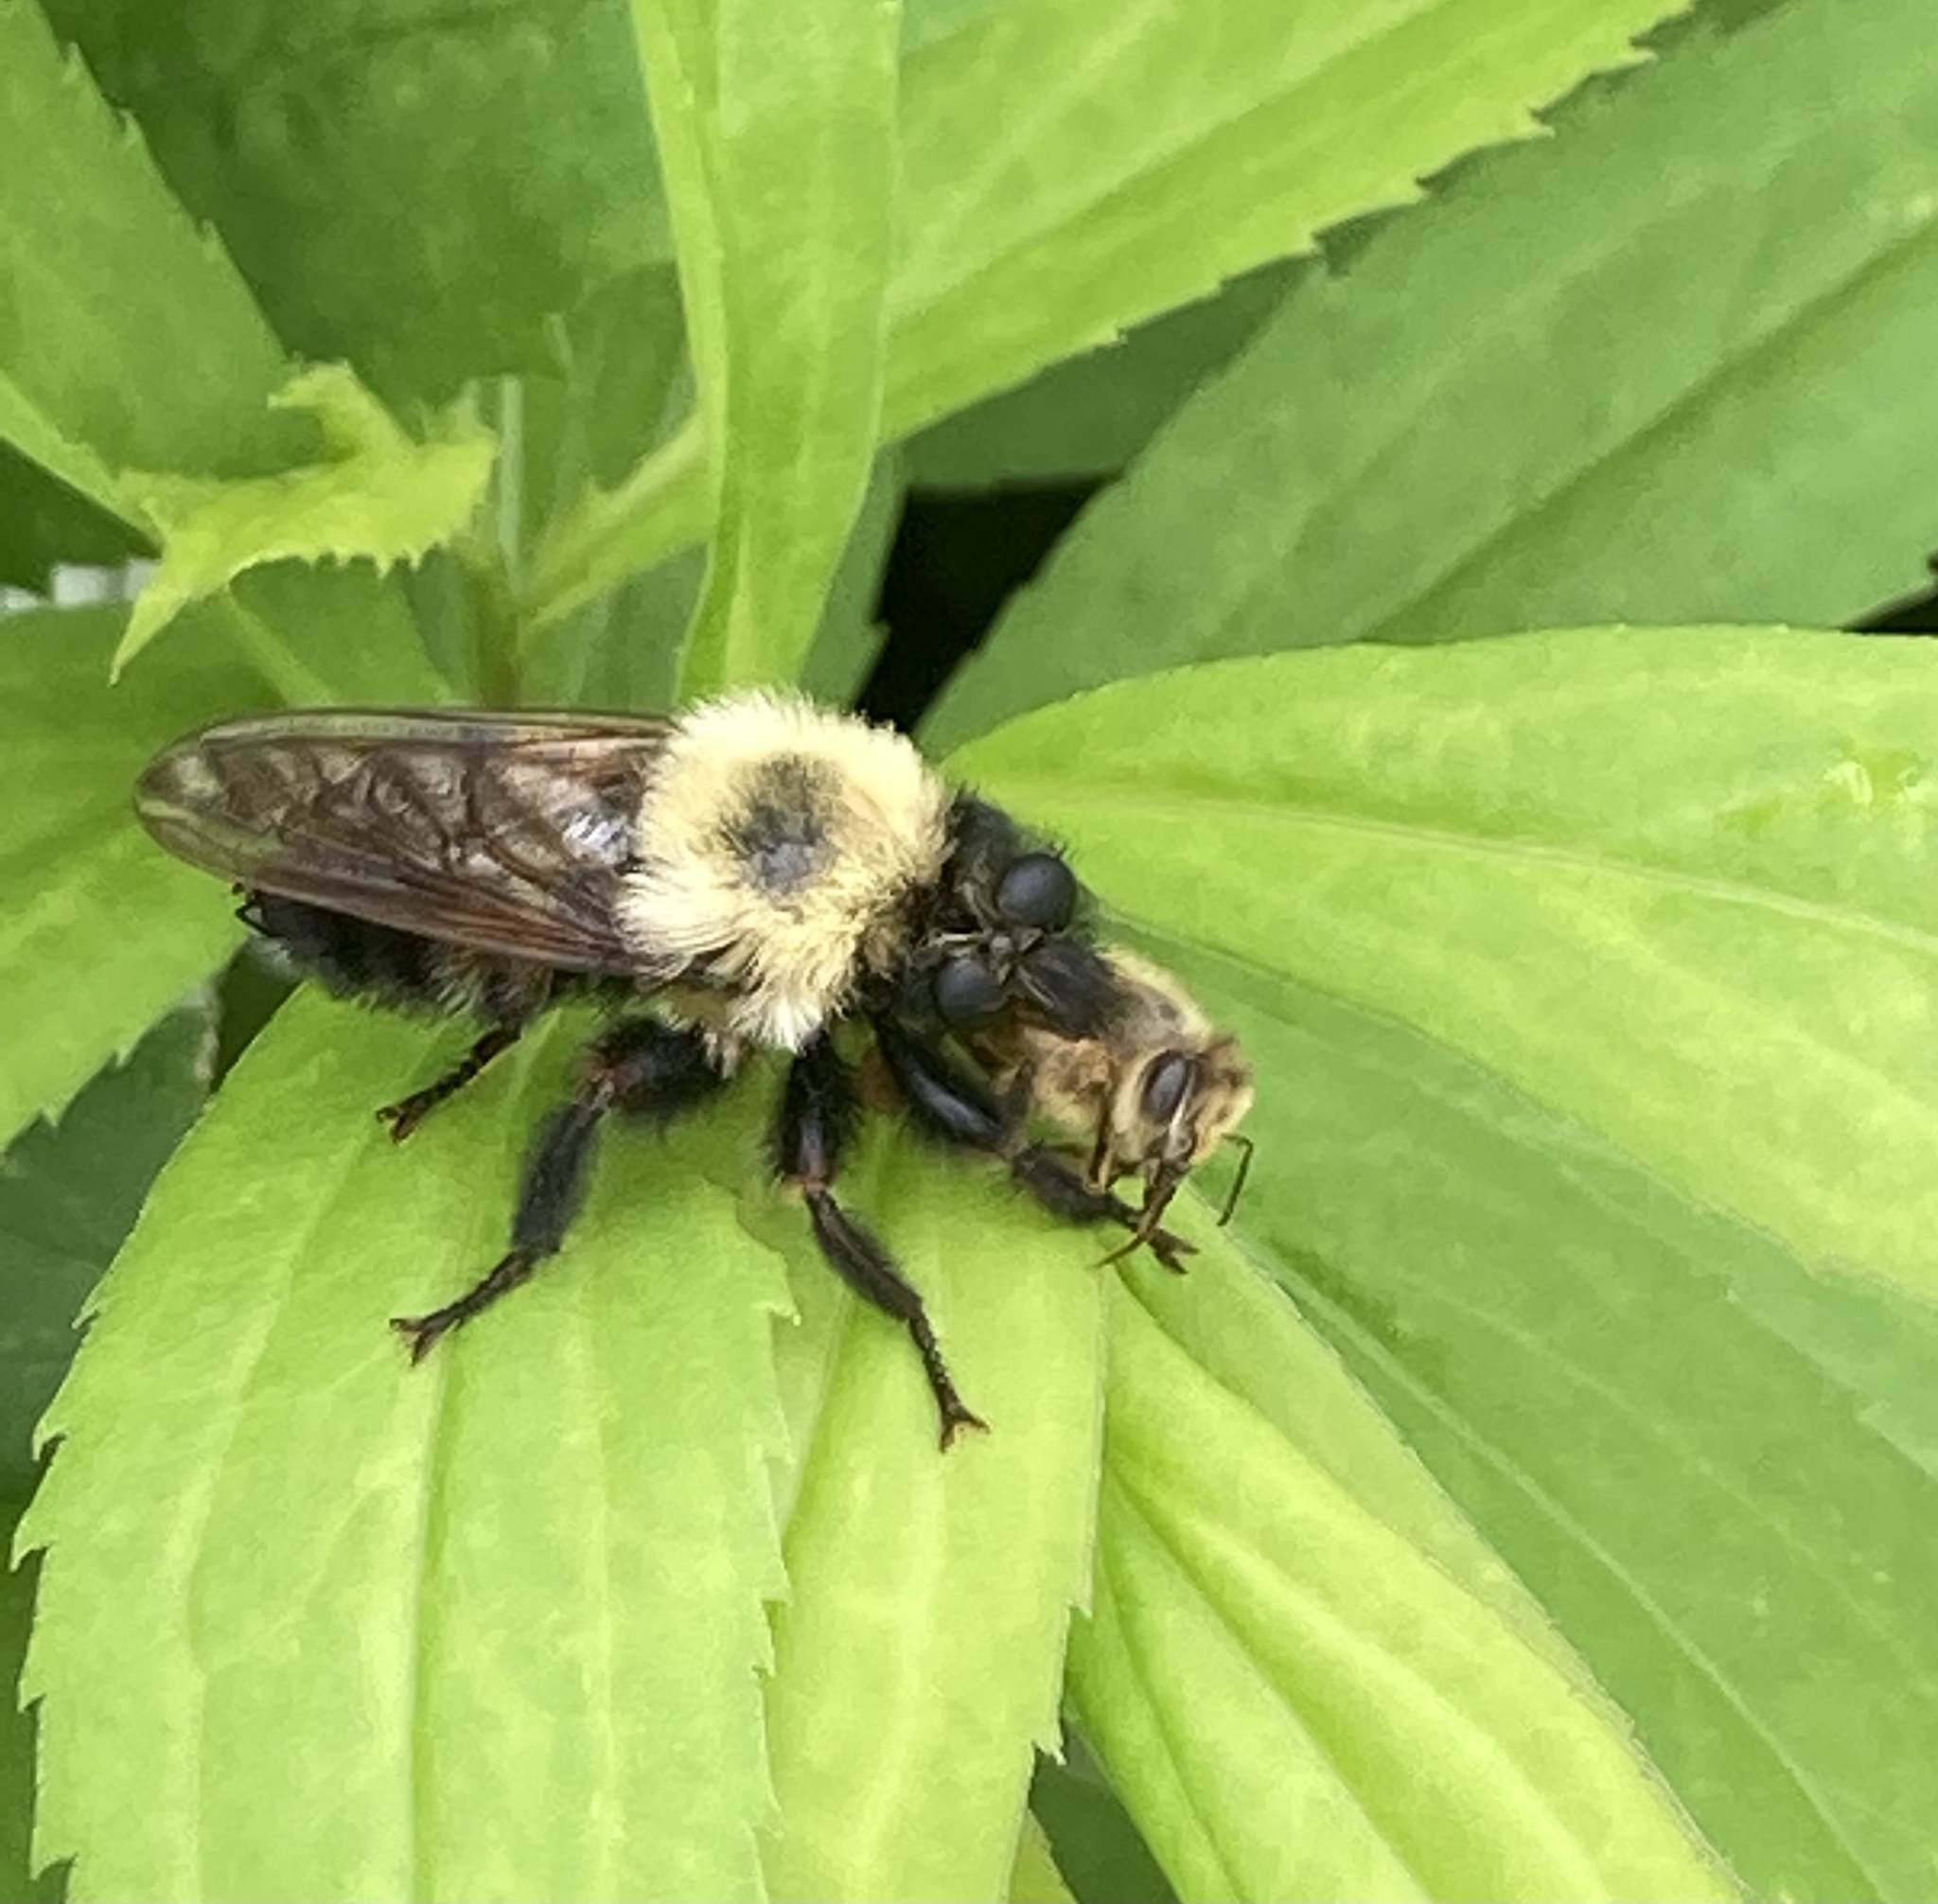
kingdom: Animalia
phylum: Arthropoda
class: Insecta
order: Diptera
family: Asilidae
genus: Laphria
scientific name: Laphria thoracica
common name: Bumble bee mimic robber fly
